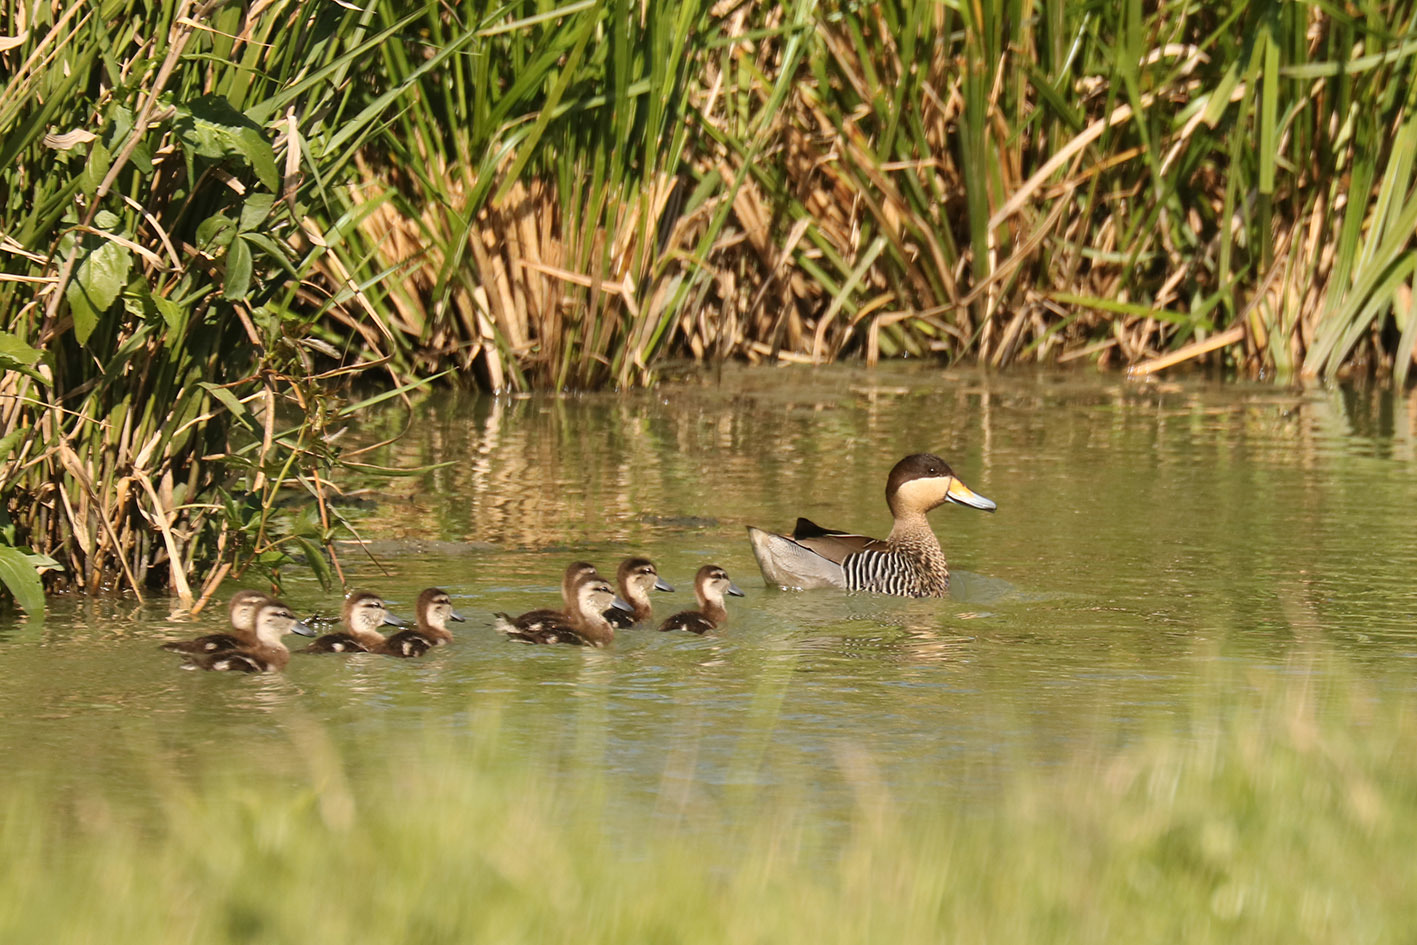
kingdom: Animalia
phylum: Chordata
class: Aves
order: Anseriformes
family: Anatidae
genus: Spatula
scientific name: Spatula versicolor
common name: Silver teal
